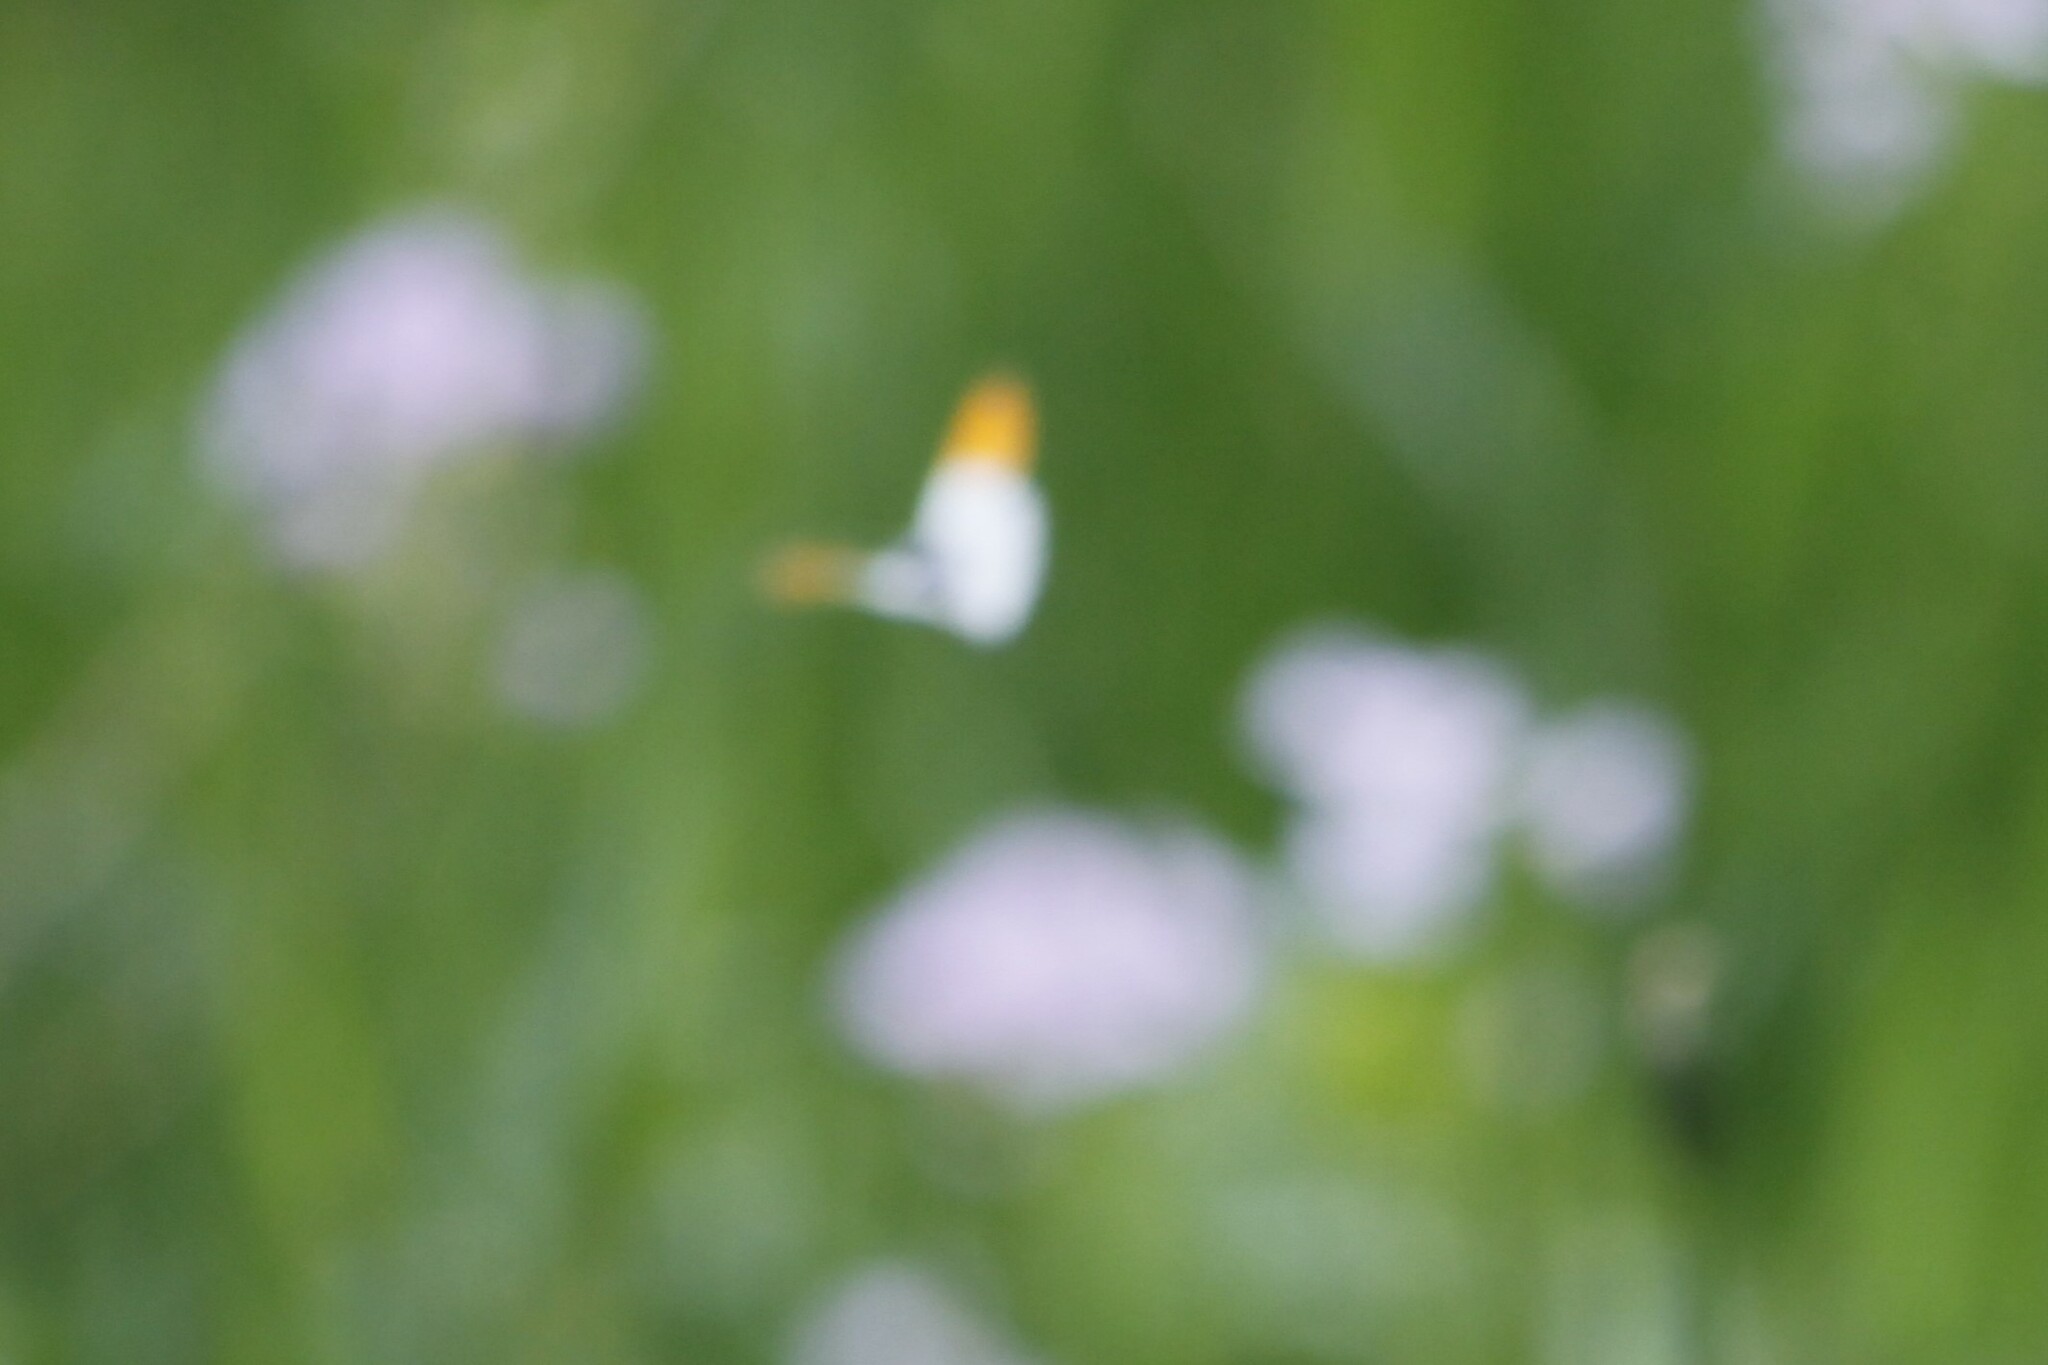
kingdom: Animalia
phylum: Arthropoda
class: Insecta
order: Lepidoptera
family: Pieridae
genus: Anthocharis
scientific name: Anthocharis cardamines
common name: Orange-tip
